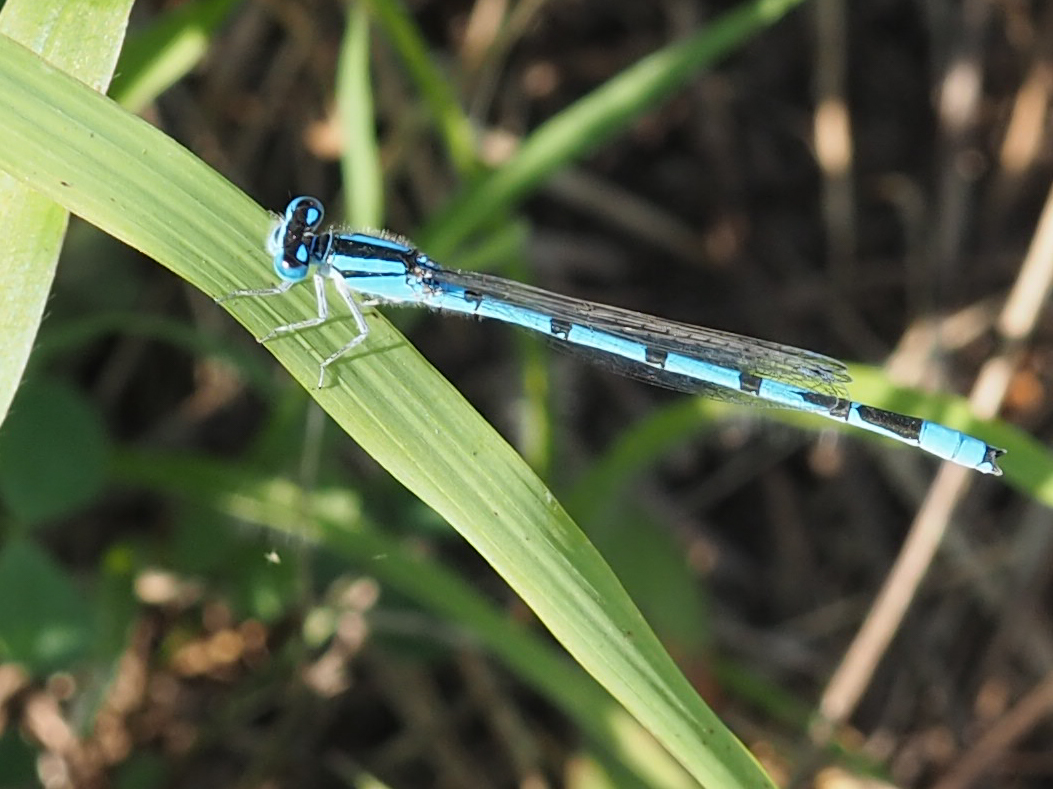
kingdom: Animalia
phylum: Arthropoda
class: Insecta
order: Odonata
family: Coenagrionidae
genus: Enallagma
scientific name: Enallagma civile
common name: Damselfly
